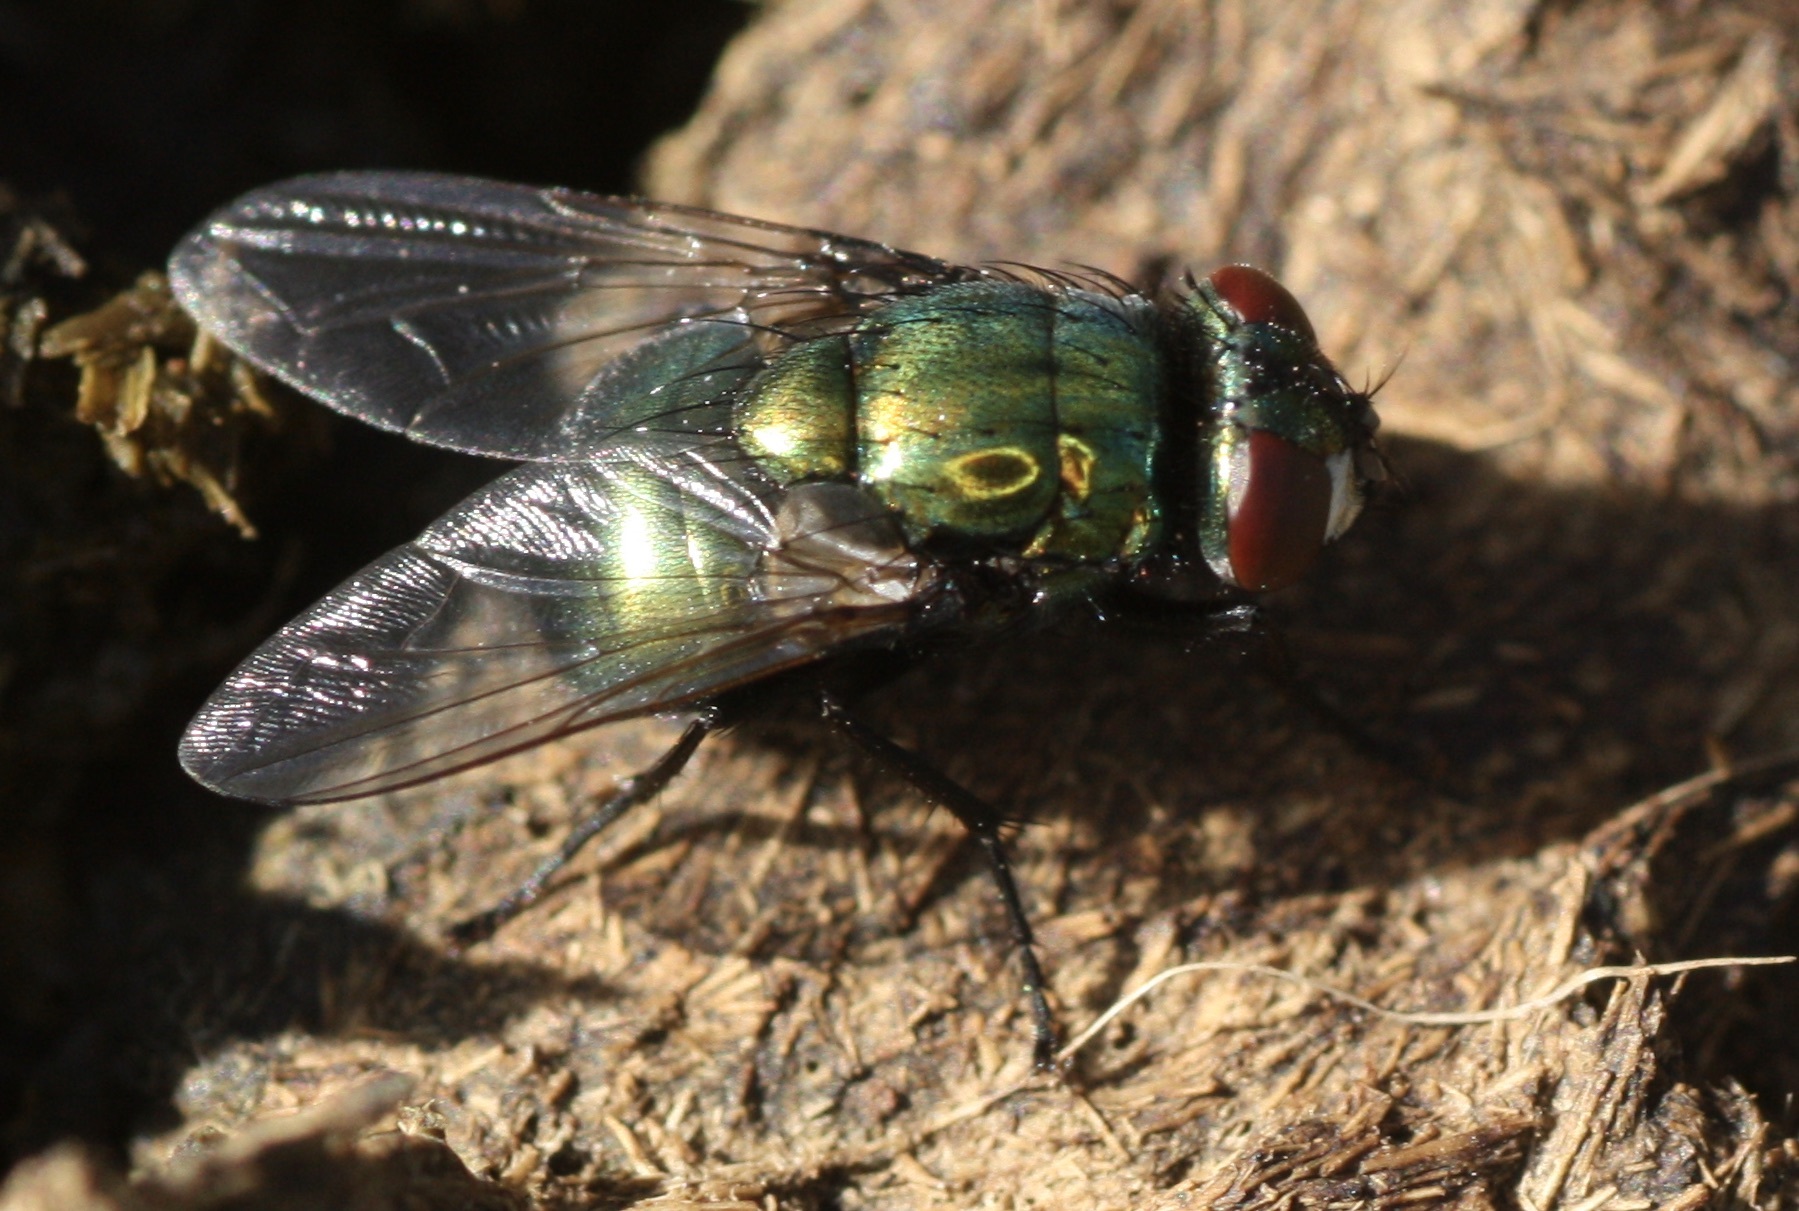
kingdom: Animalia
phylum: Arthropoda
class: Insecta
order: Diptera
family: Muscidae
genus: Neomyia
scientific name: Neomyia cornicina
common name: House fly
